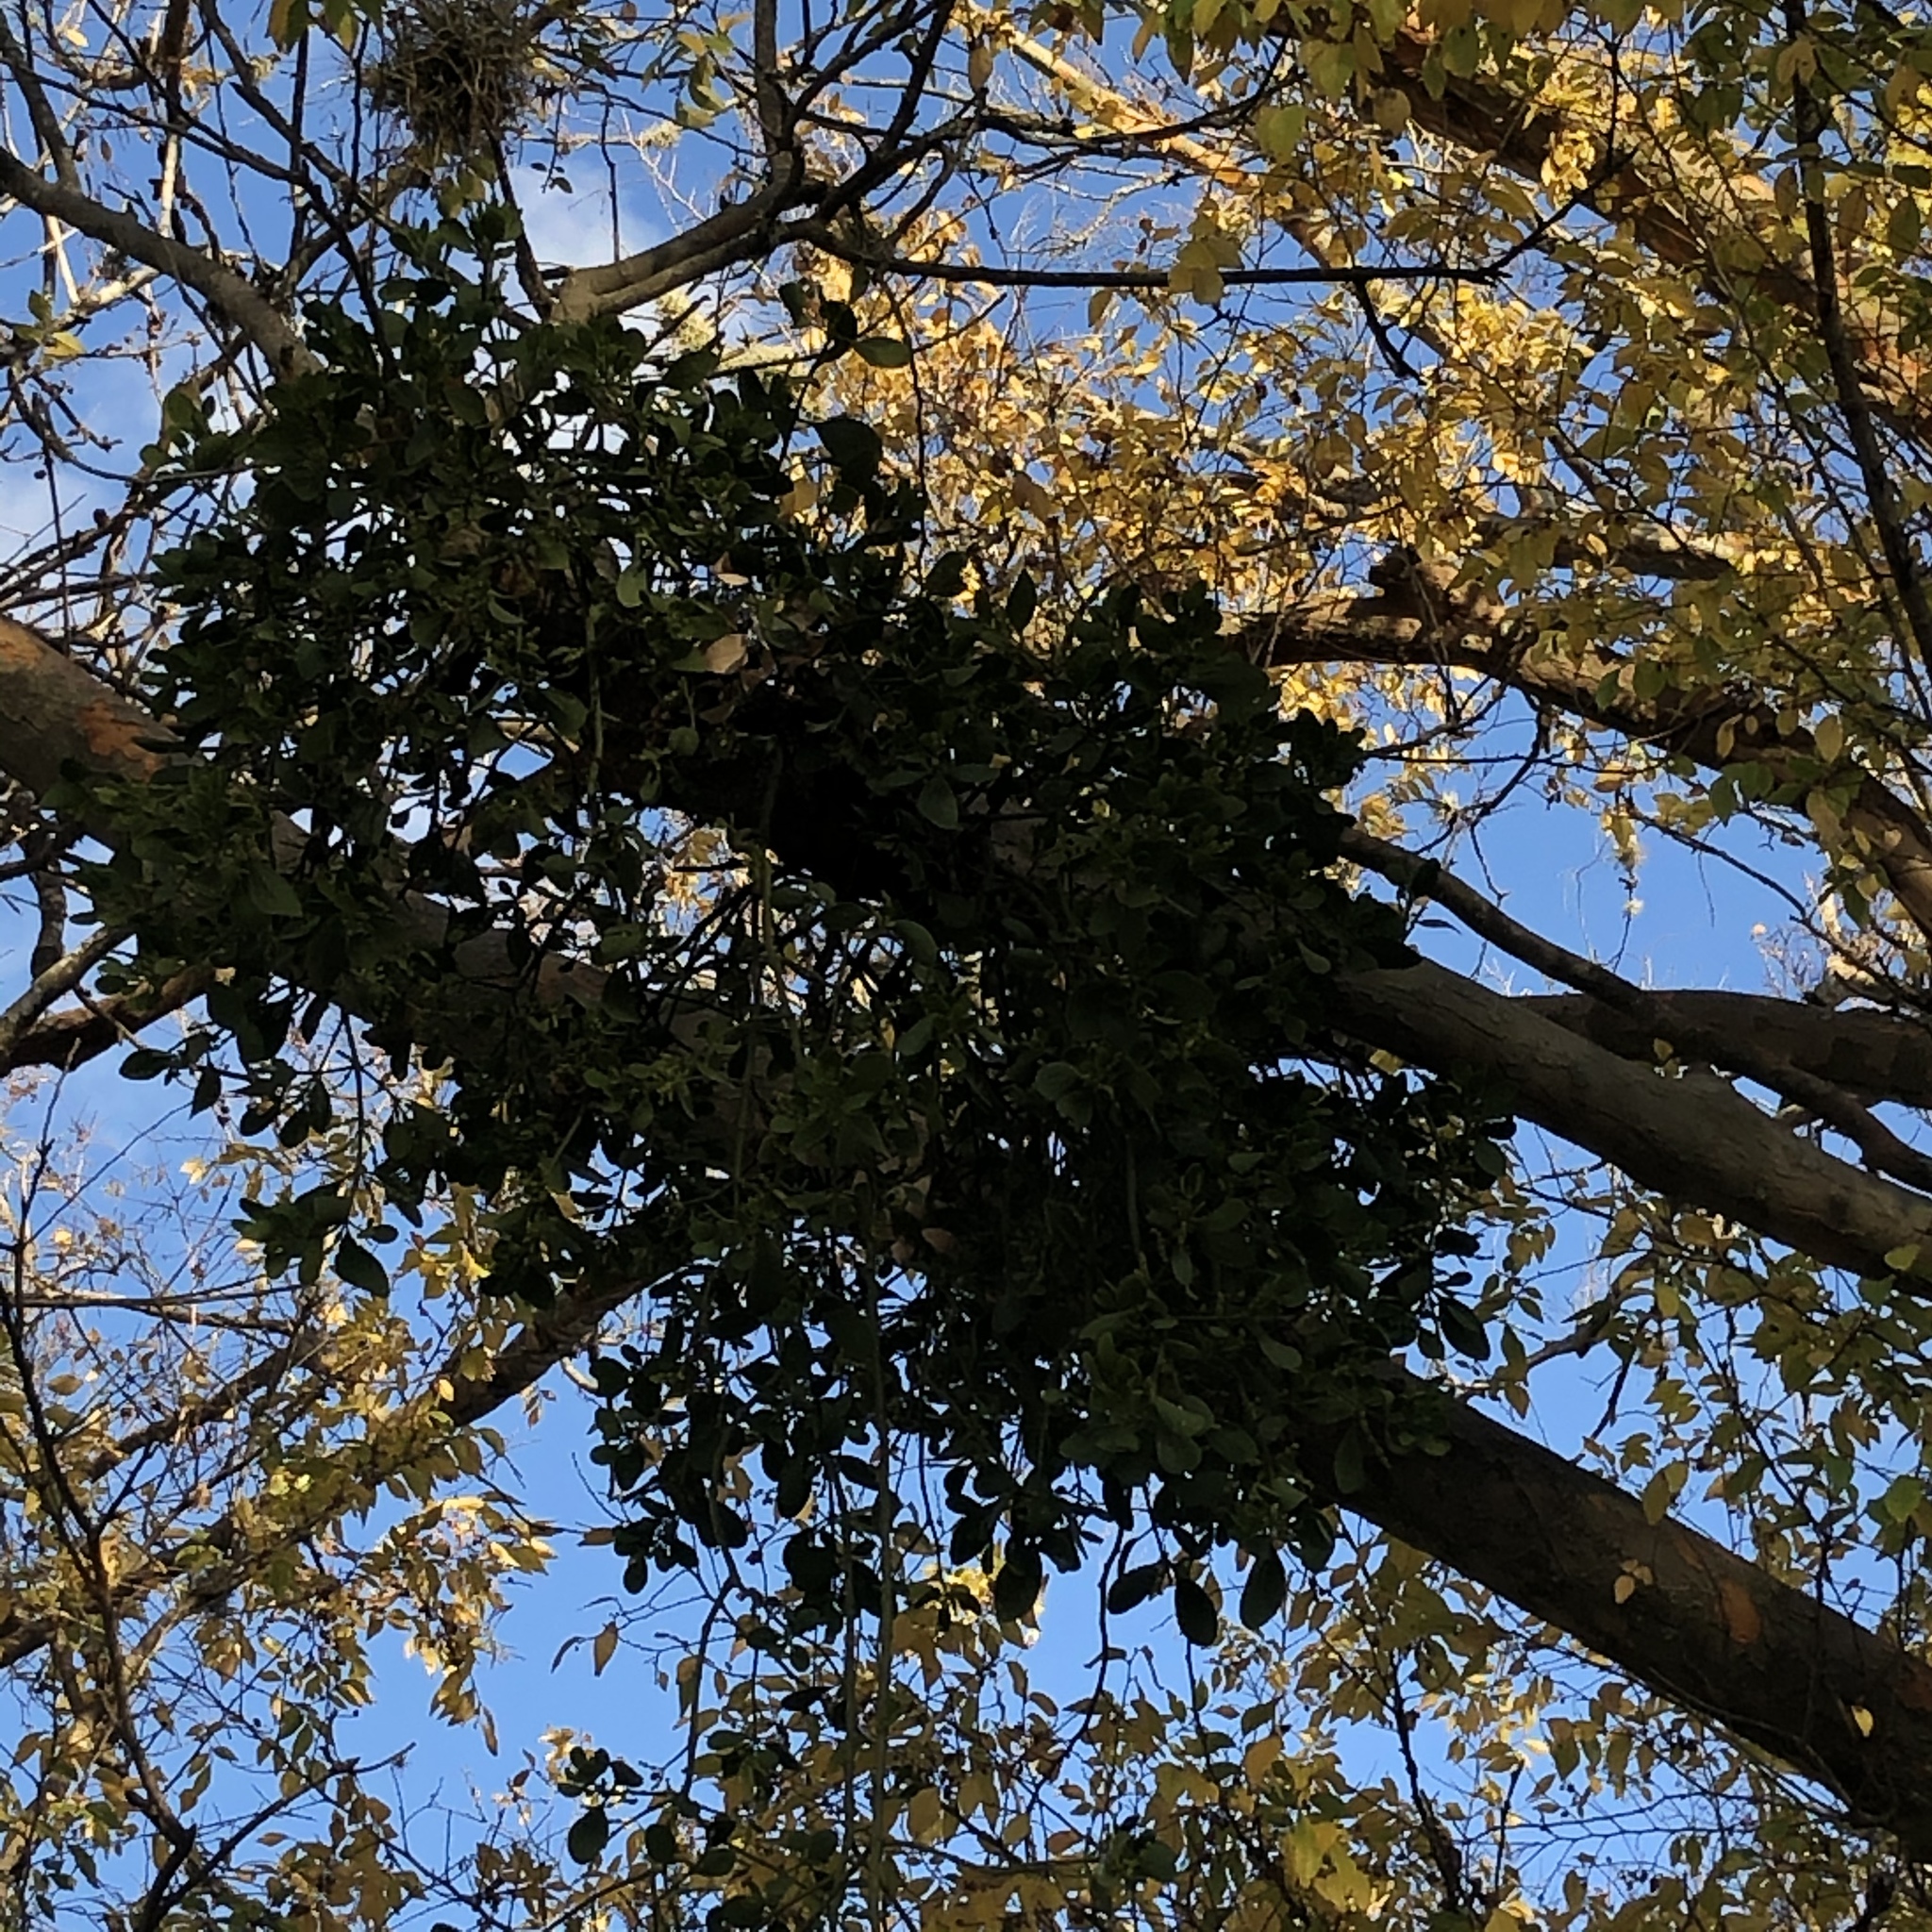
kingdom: Plantae
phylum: Tracheophyta
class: Magnoliopsida
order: Santalales
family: Viscaceae
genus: Phoradendron
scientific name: Phoradendron leucarpum
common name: Pacific mistletoe
